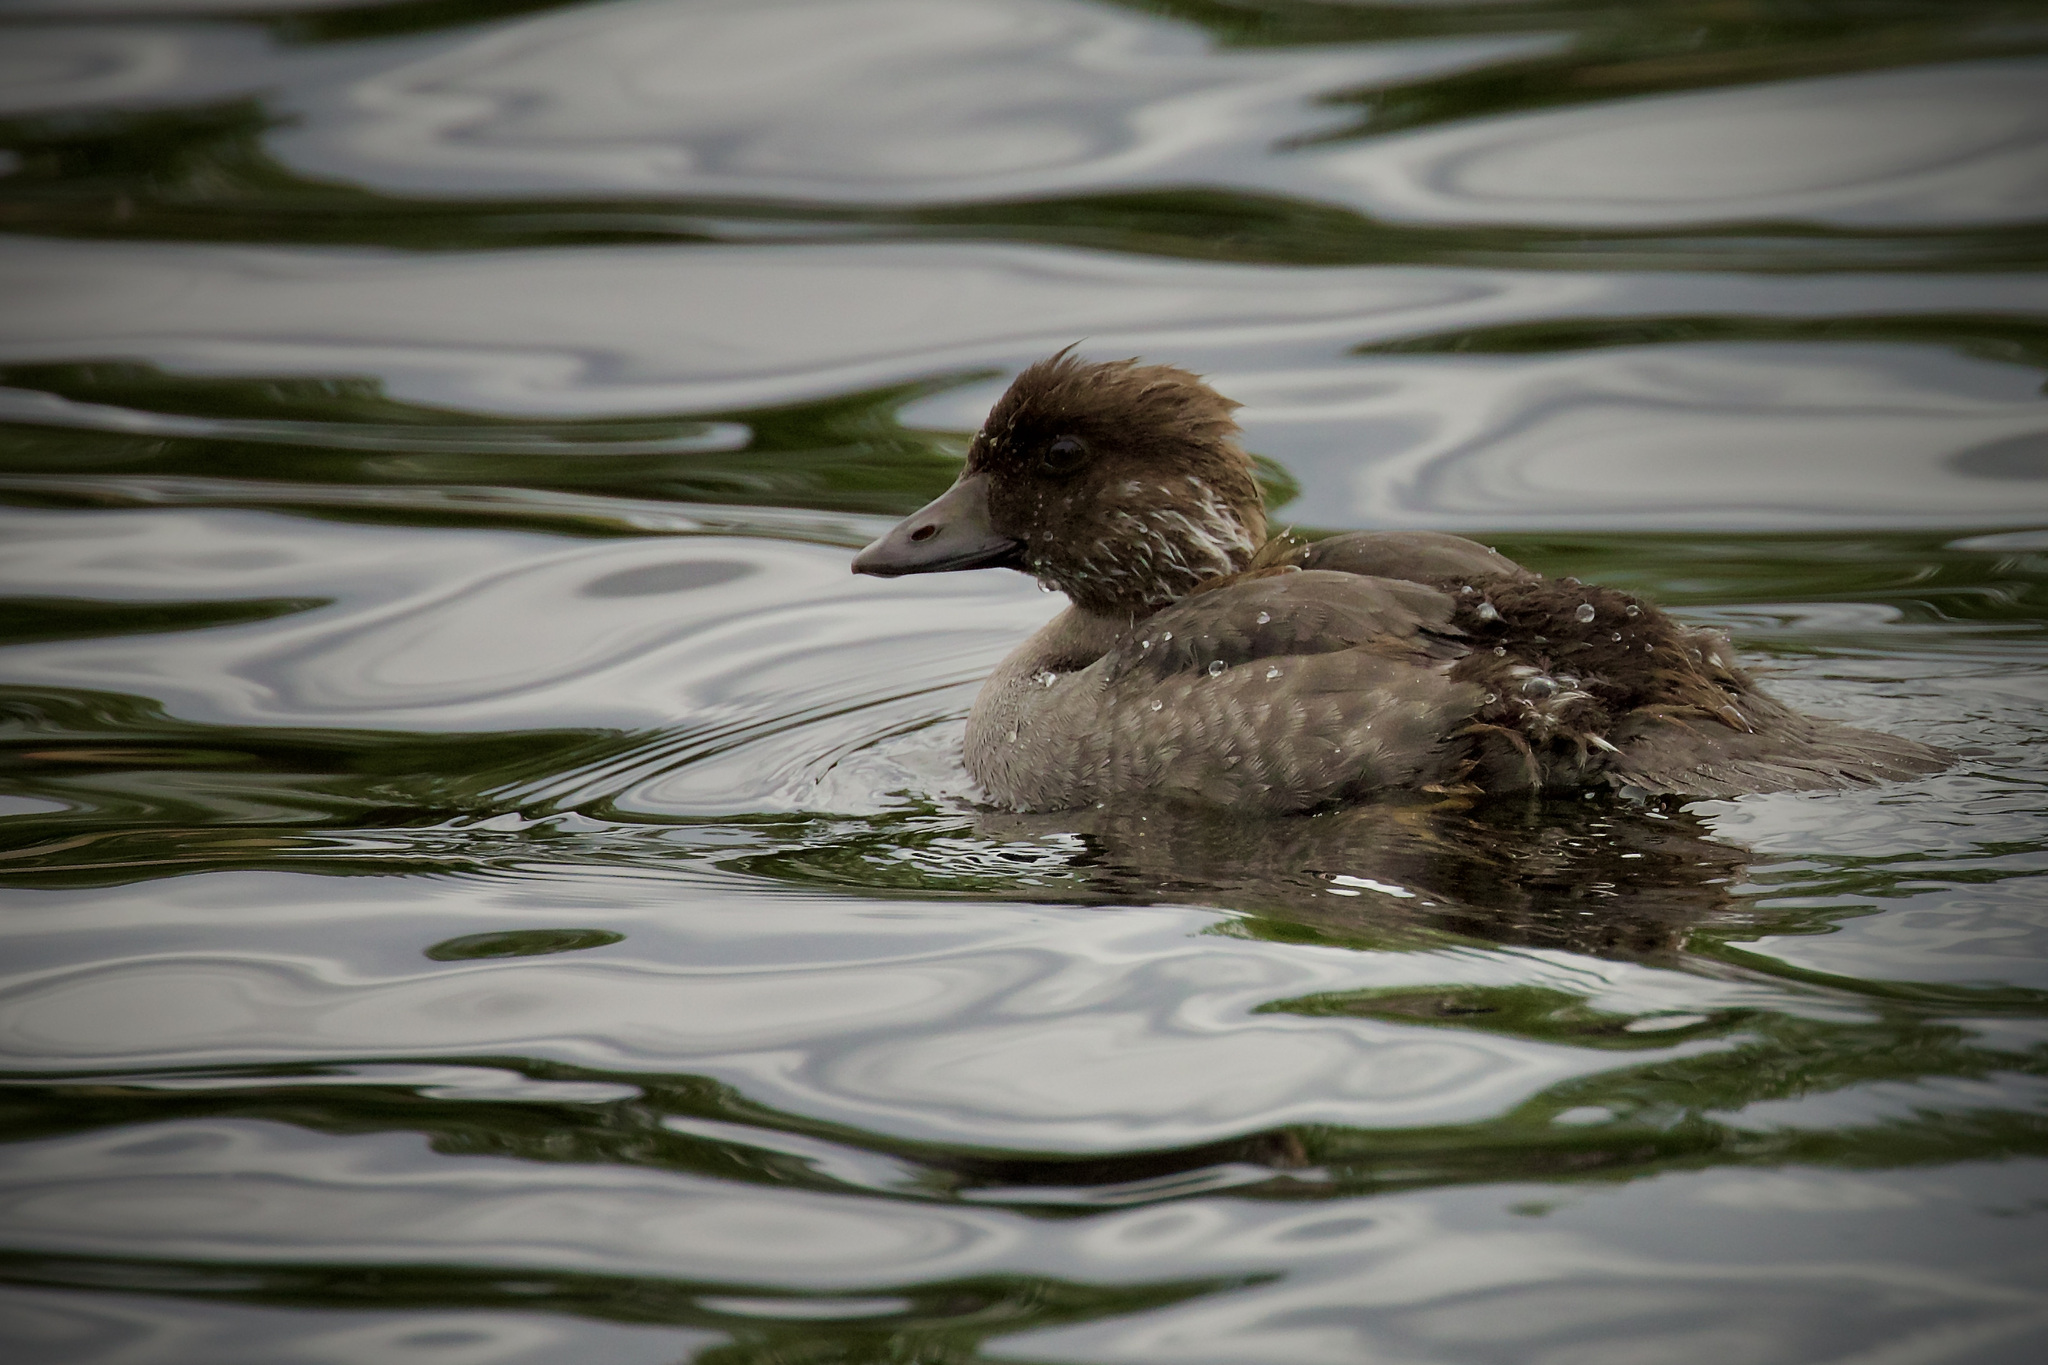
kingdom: Animalia
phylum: Chordata
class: Aves
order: Anseriformes
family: Anatidae
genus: Bucephala
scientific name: Bucephala clangula
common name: Common goldeneye
